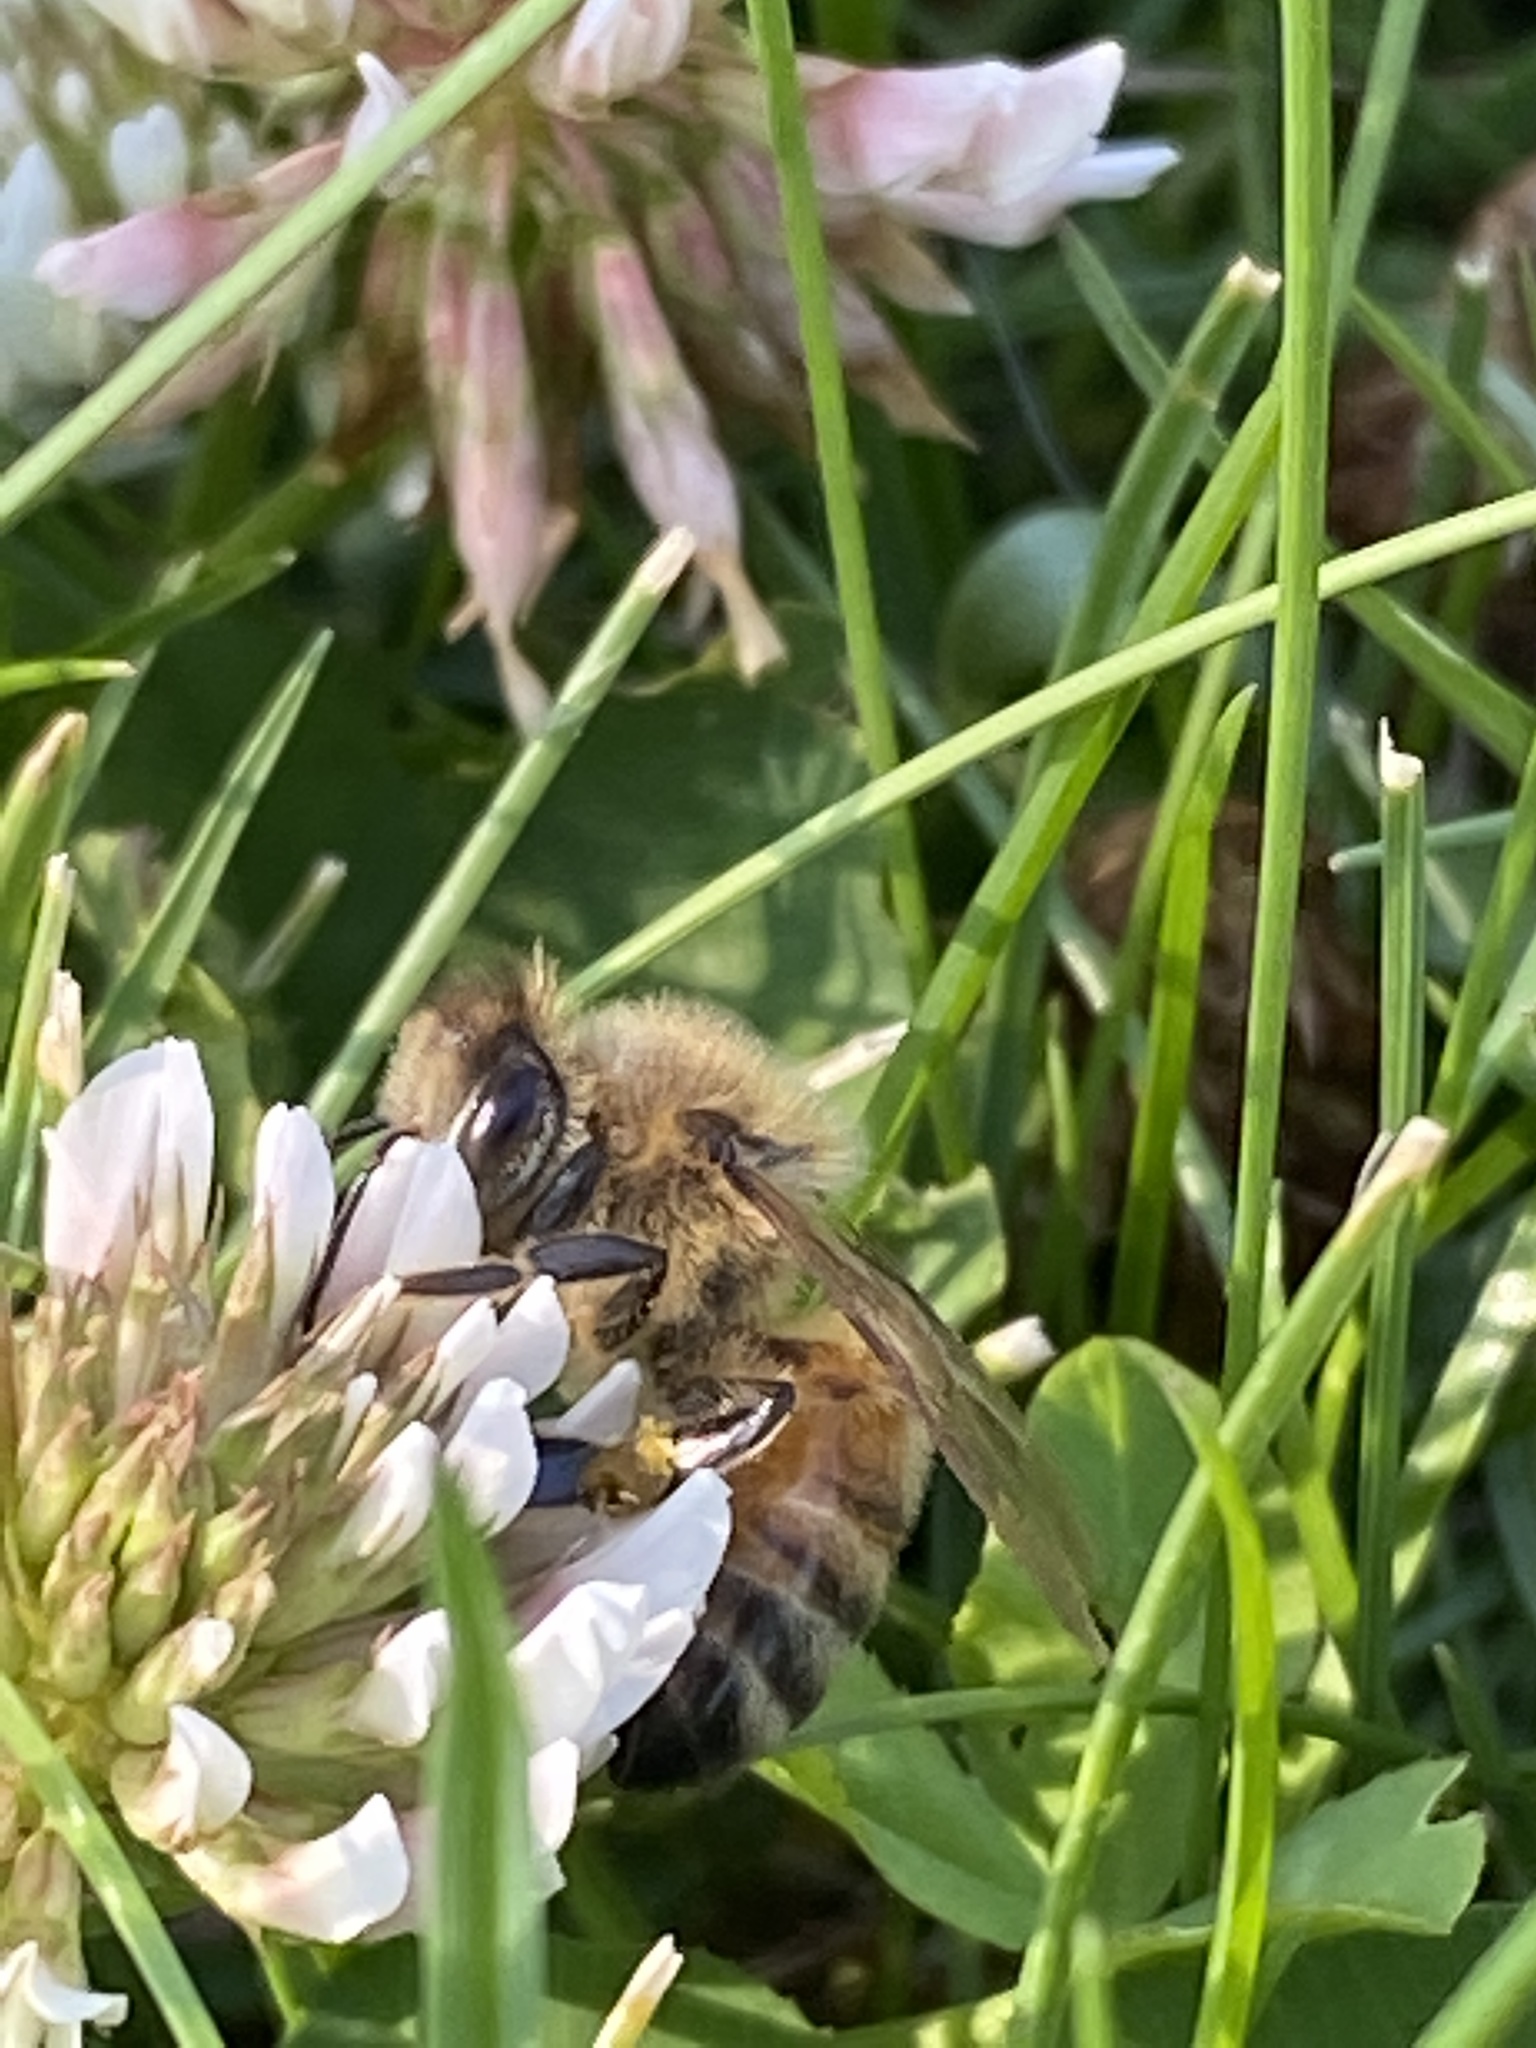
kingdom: Animalia
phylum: Arthropoda
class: Insecta
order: Hymenoptera
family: Apidae
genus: Apis
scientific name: Apis mellifera
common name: Honey bee
